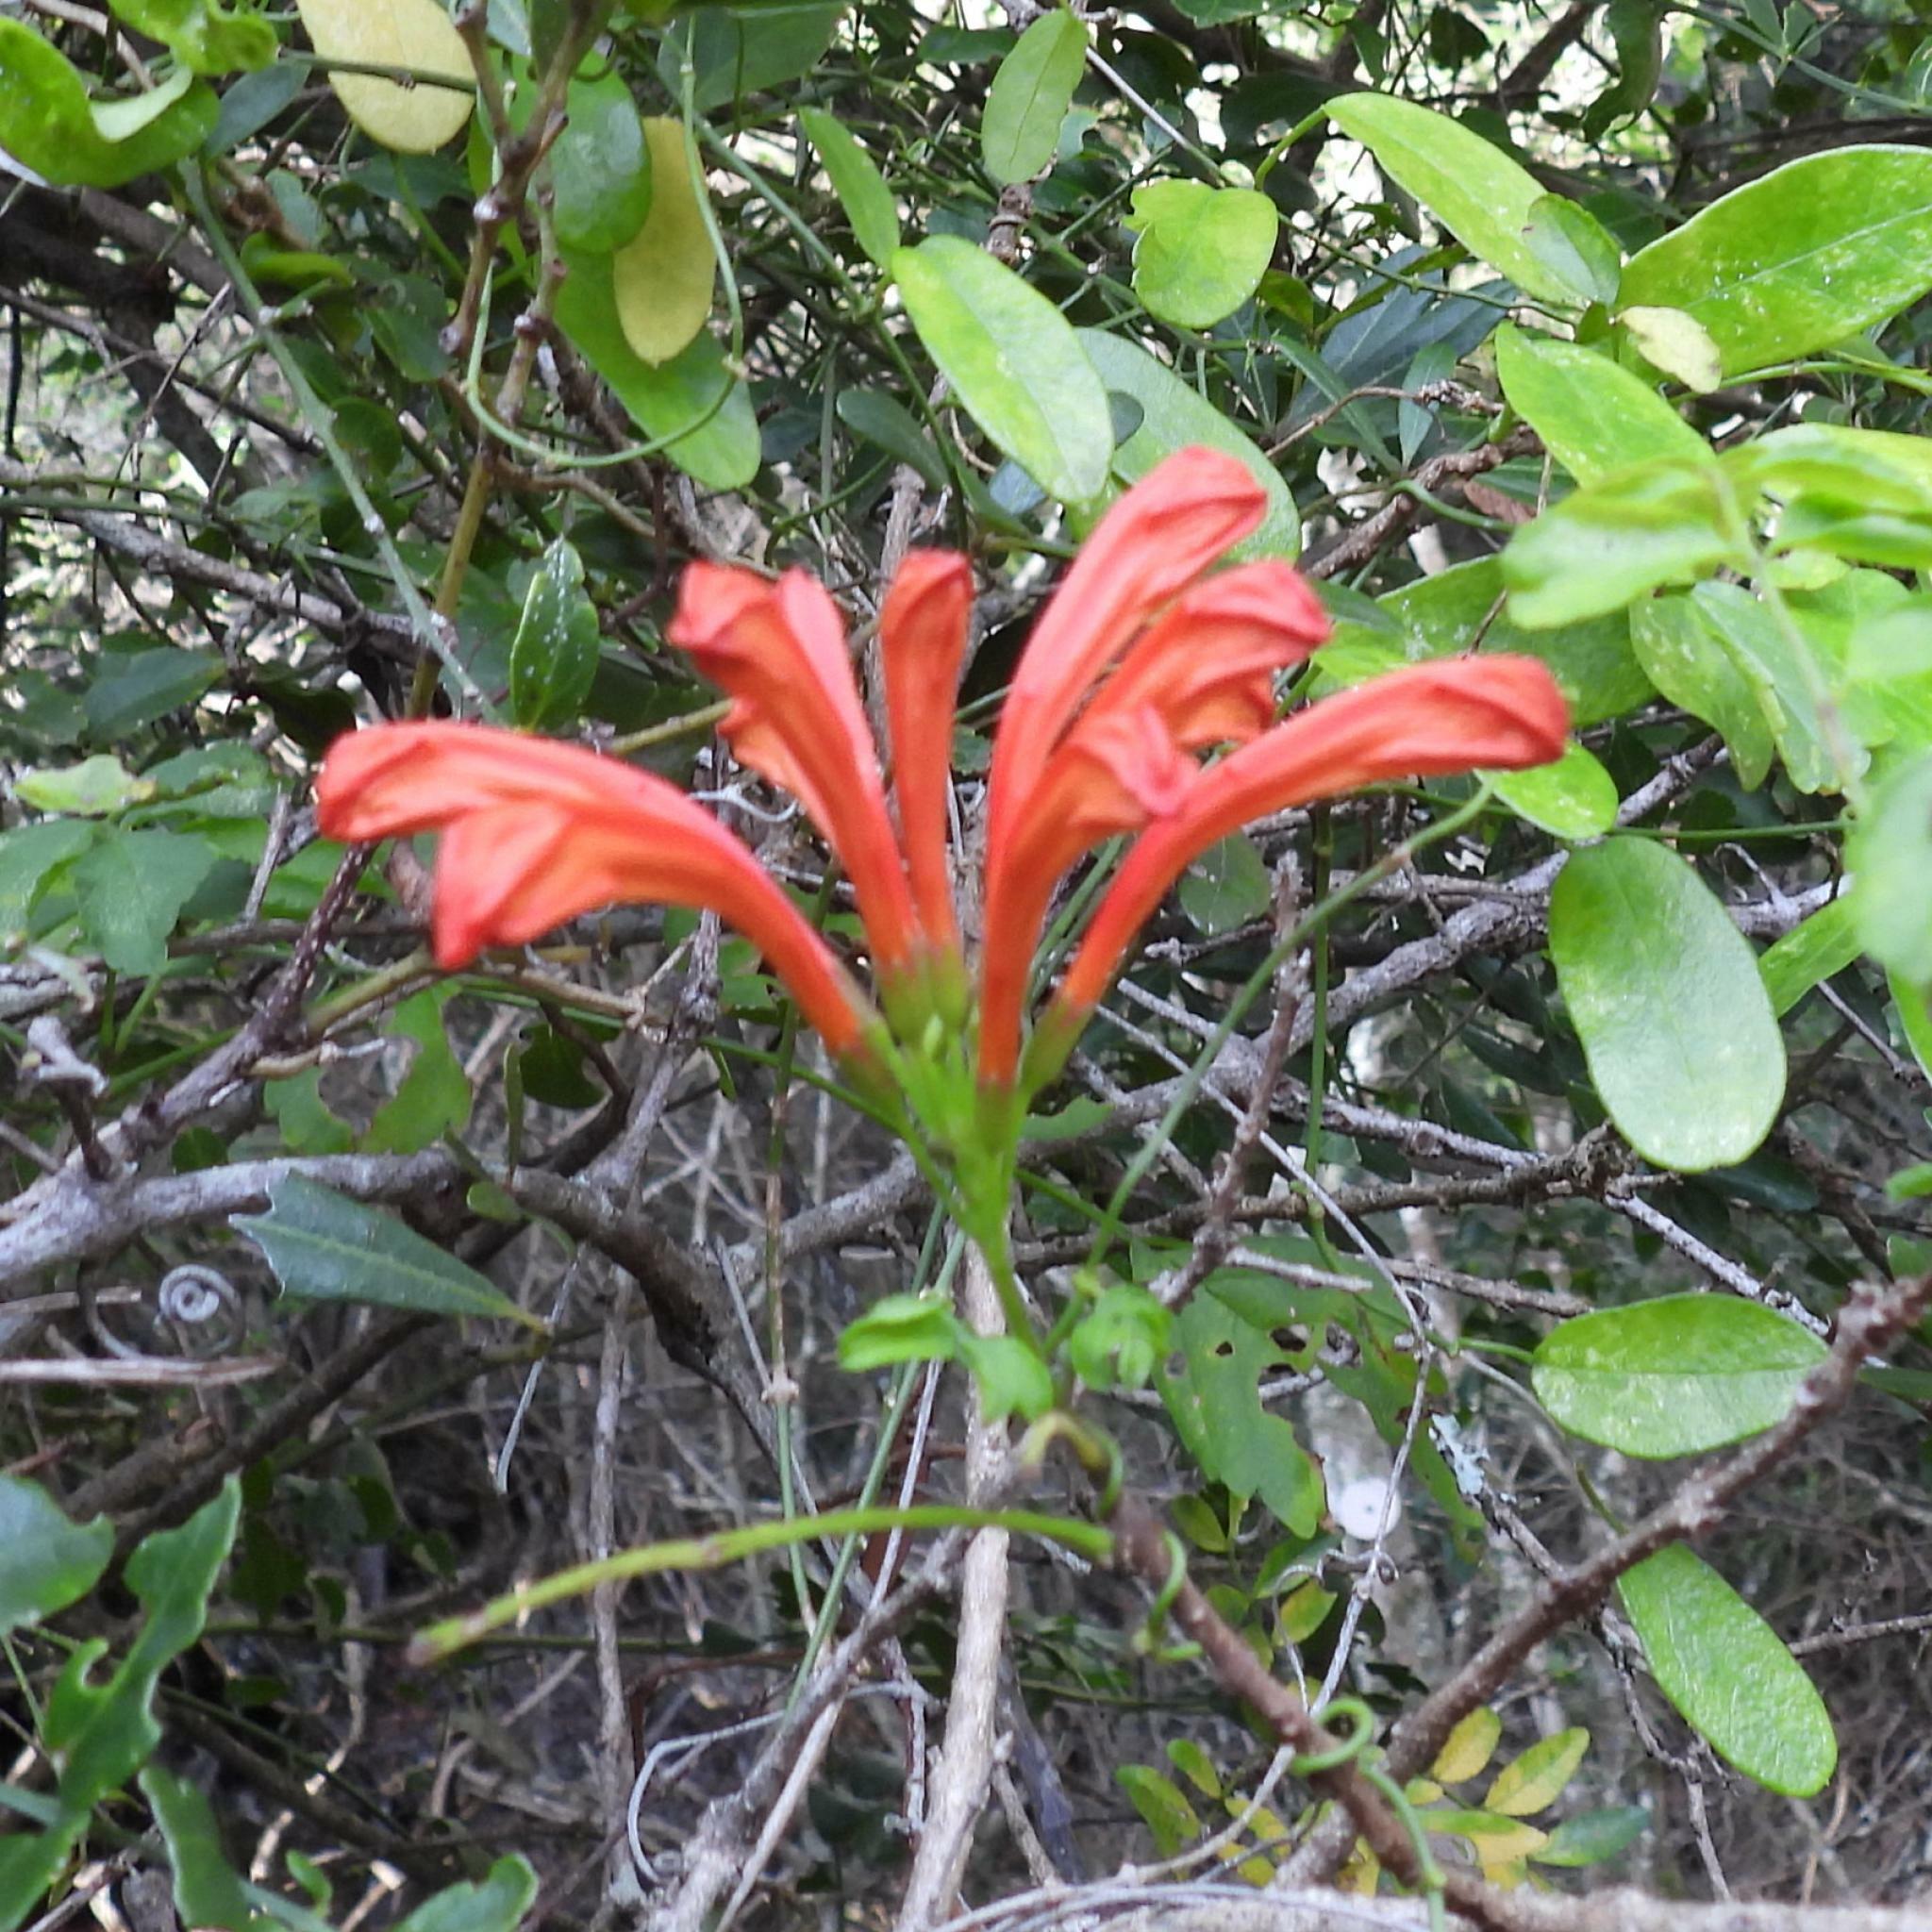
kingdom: Plantae
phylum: Tracheophyta
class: Magnoliopsida
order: Lamiales
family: Bignoniaceae
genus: Tecomaria
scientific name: Tecomaria capensis
